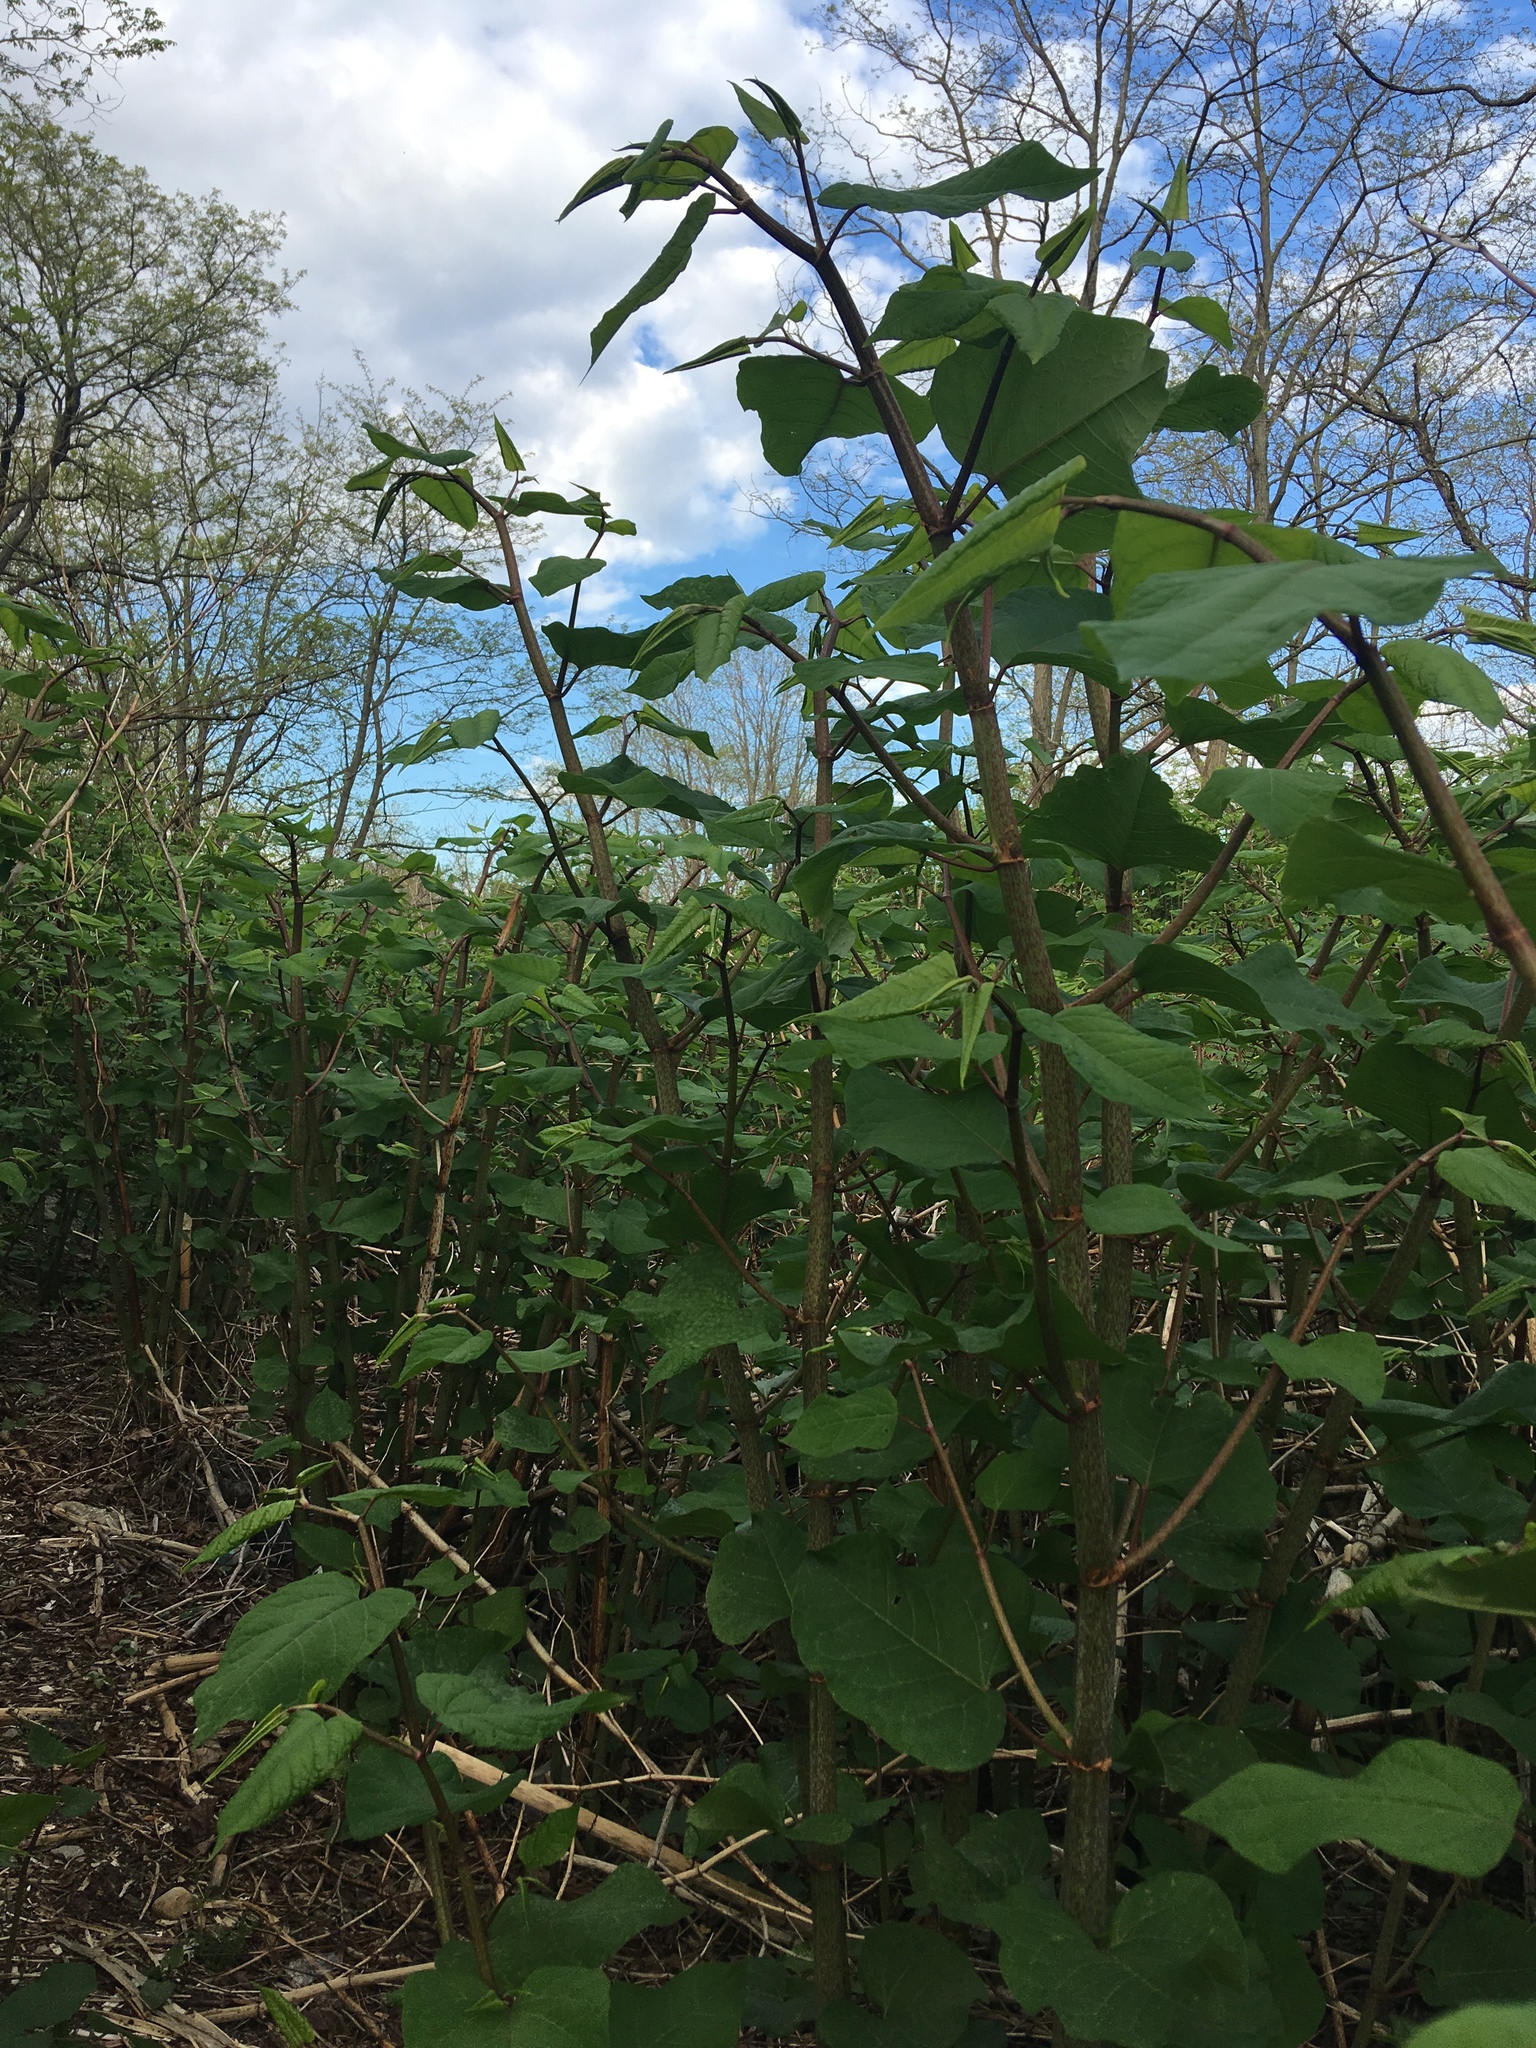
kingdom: Plantae
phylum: Tracheophyta
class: Magnoliopsida
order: Caryophyllales
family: Polygonaceae
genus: Reynoutria
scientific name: Reynoutria japonica
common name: Japanese knotweed
